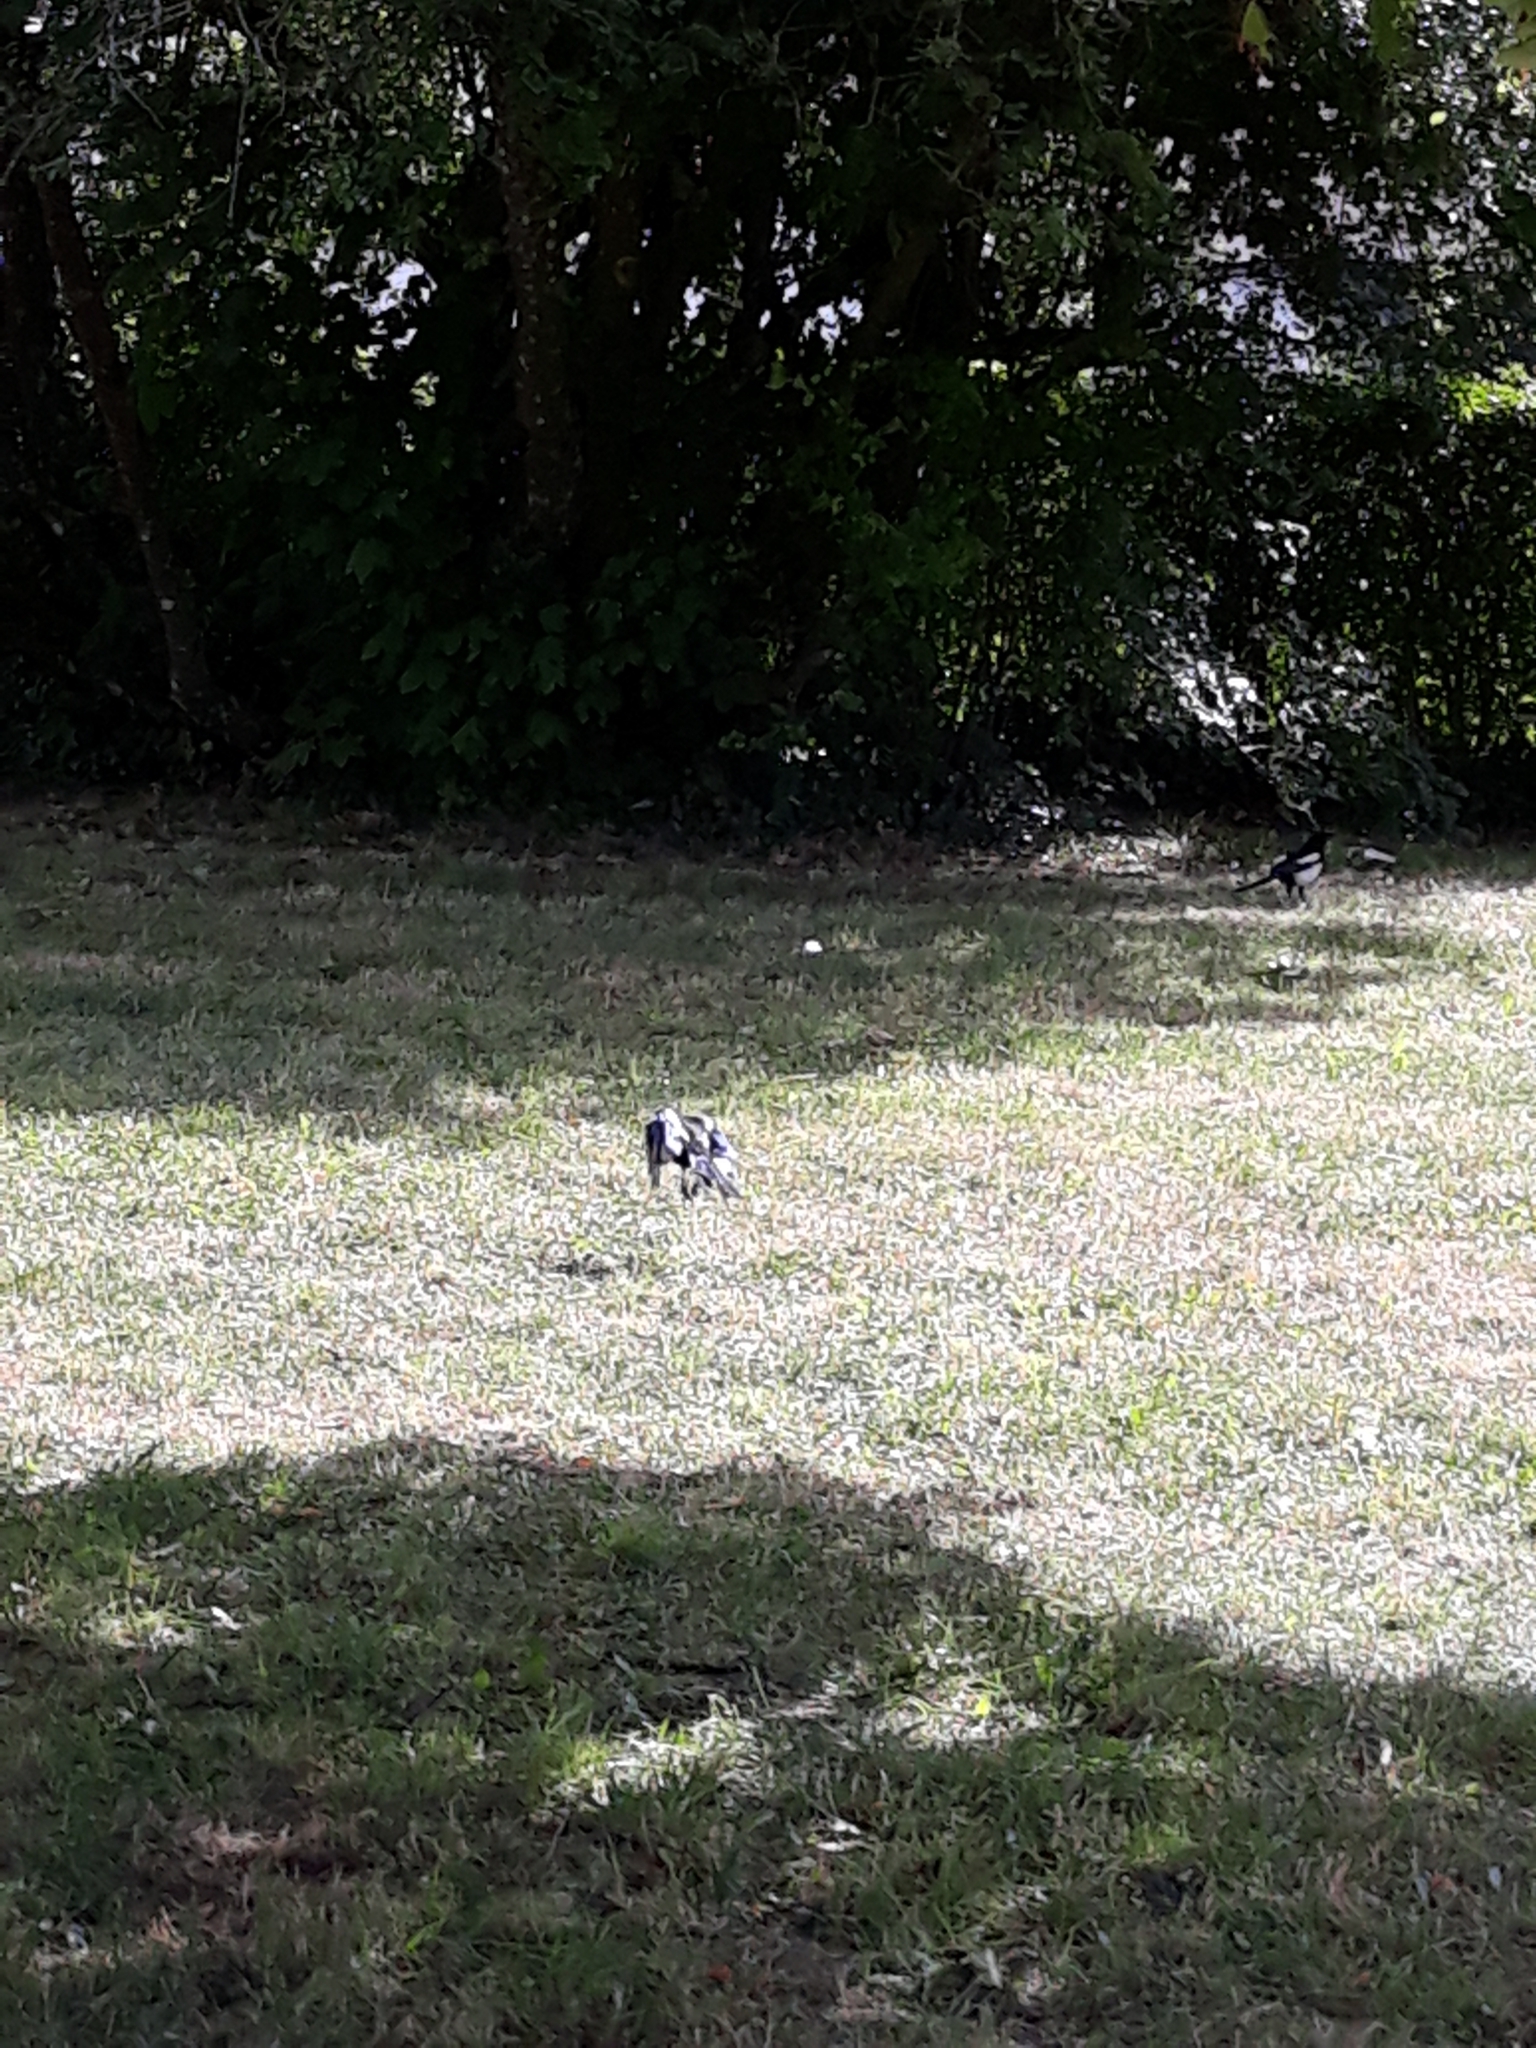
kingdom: Animalia
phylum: Chordata
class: Aves
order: Passeriformes
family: Corvidae
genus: Pica
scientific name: Pica pica
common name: Eurasian magpie
